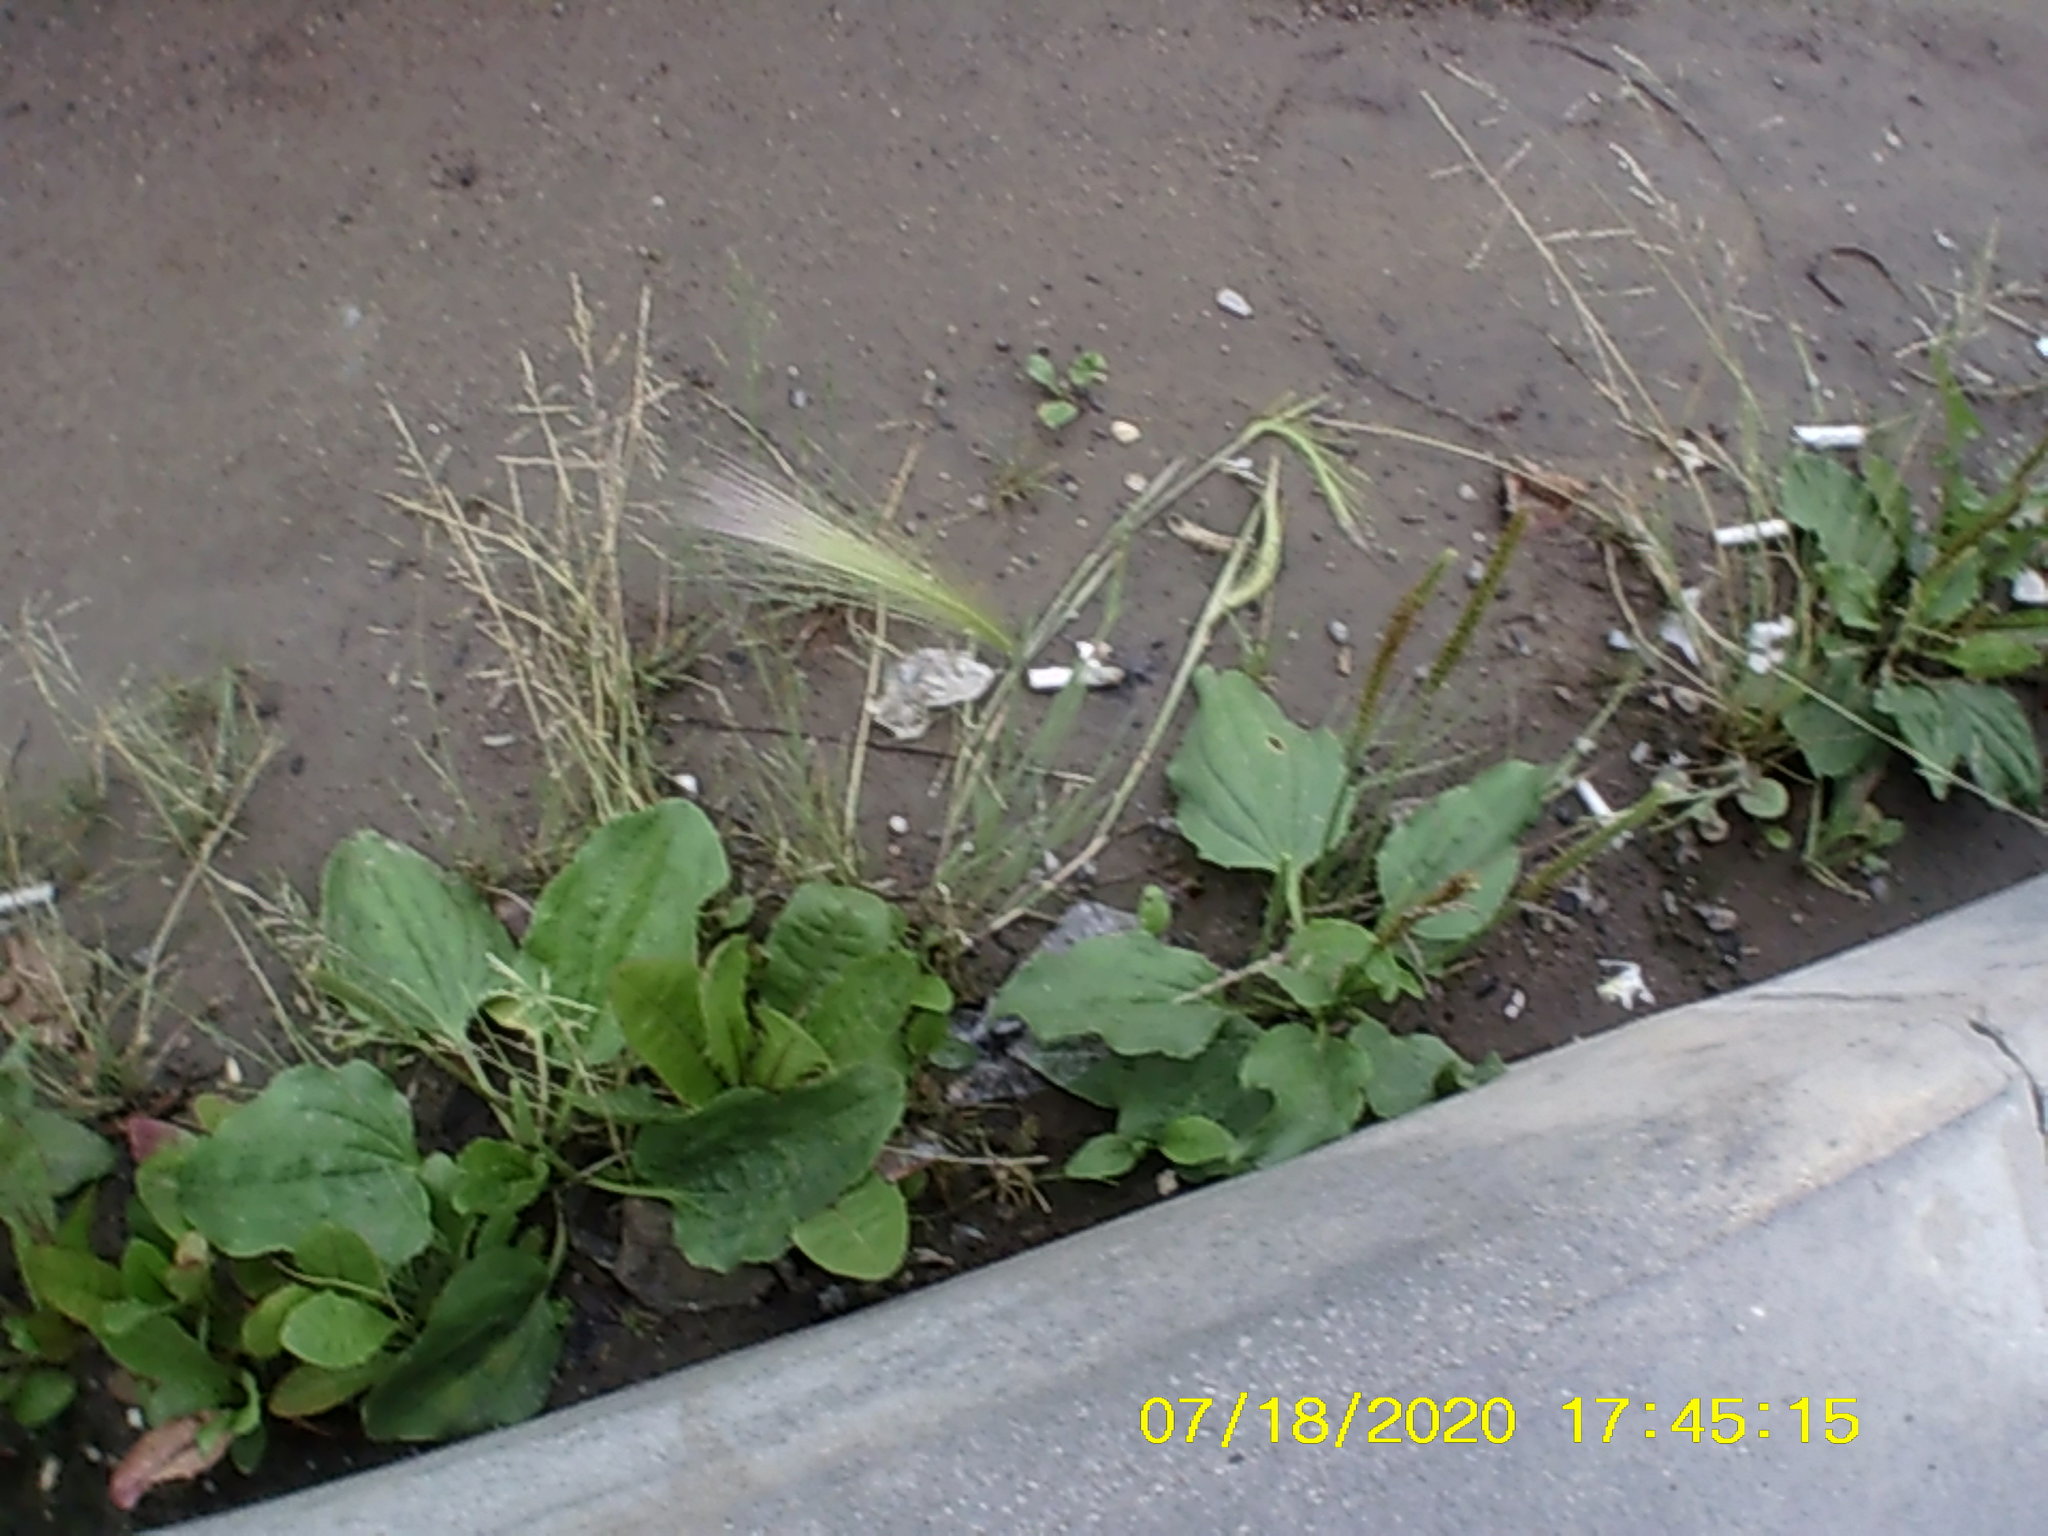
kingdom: Plantae
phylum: Tracheophyta
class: Liliopsida
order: Poales
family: Poaceae
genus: Hordeum
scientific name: Hordeum jubatum
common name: Foxtail barley
